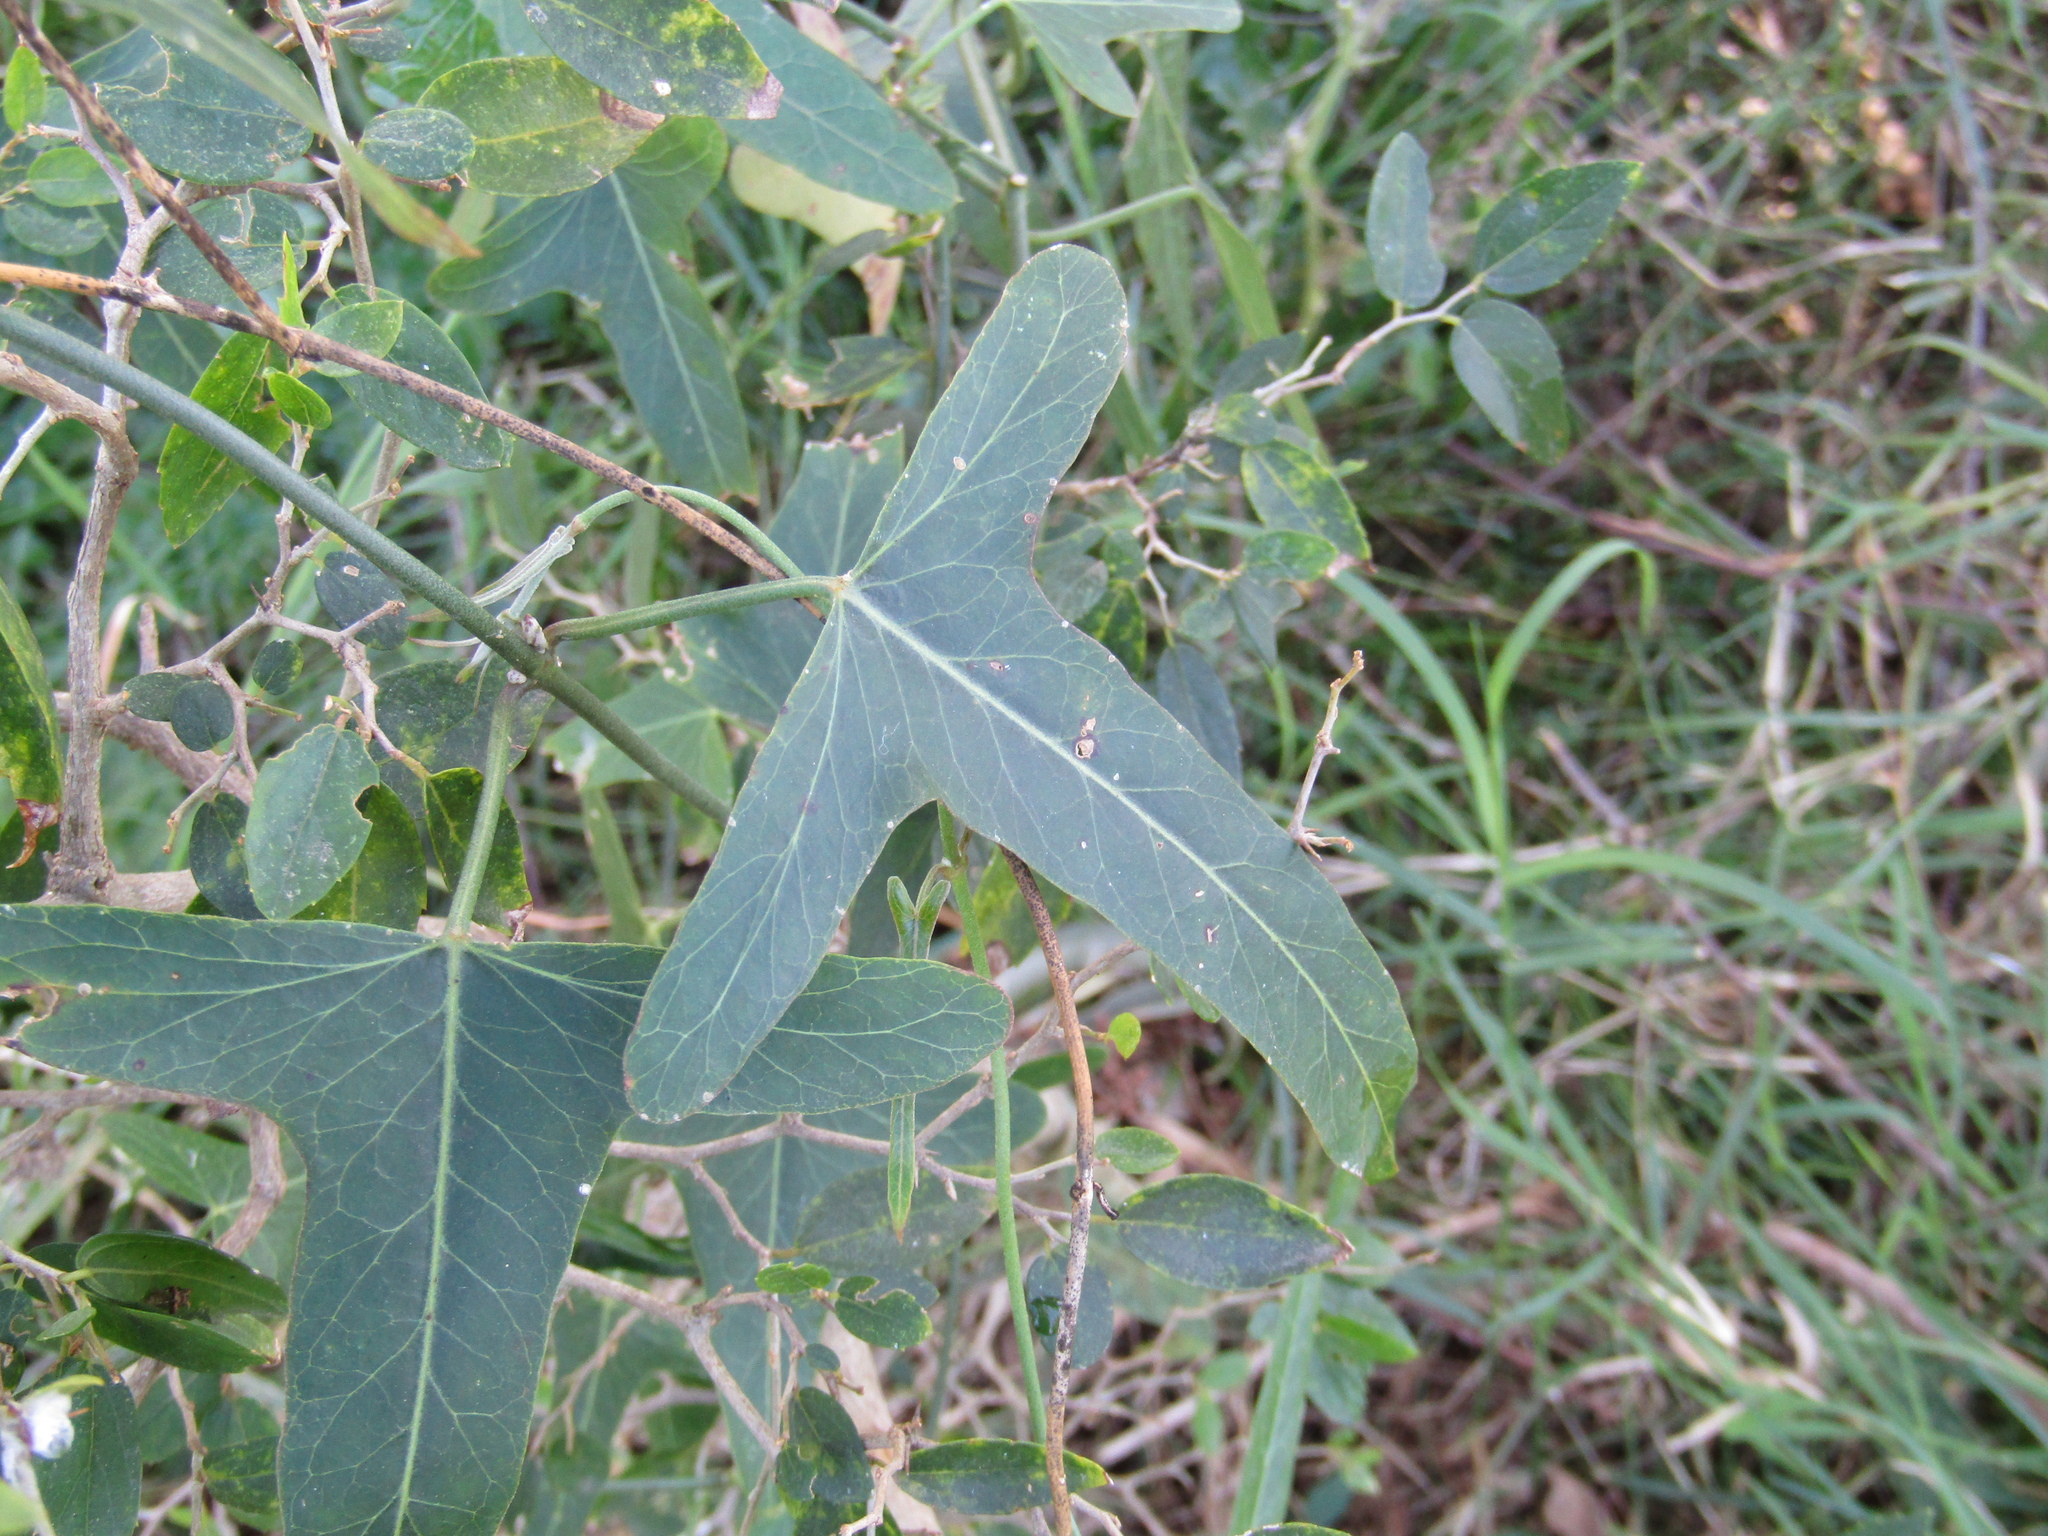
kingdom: Plantae
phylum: Tracheophyta
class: Magnoliopsida
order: Gentianales
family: Apocynaceae
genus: Araujia
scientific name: Araujia angustifolia
